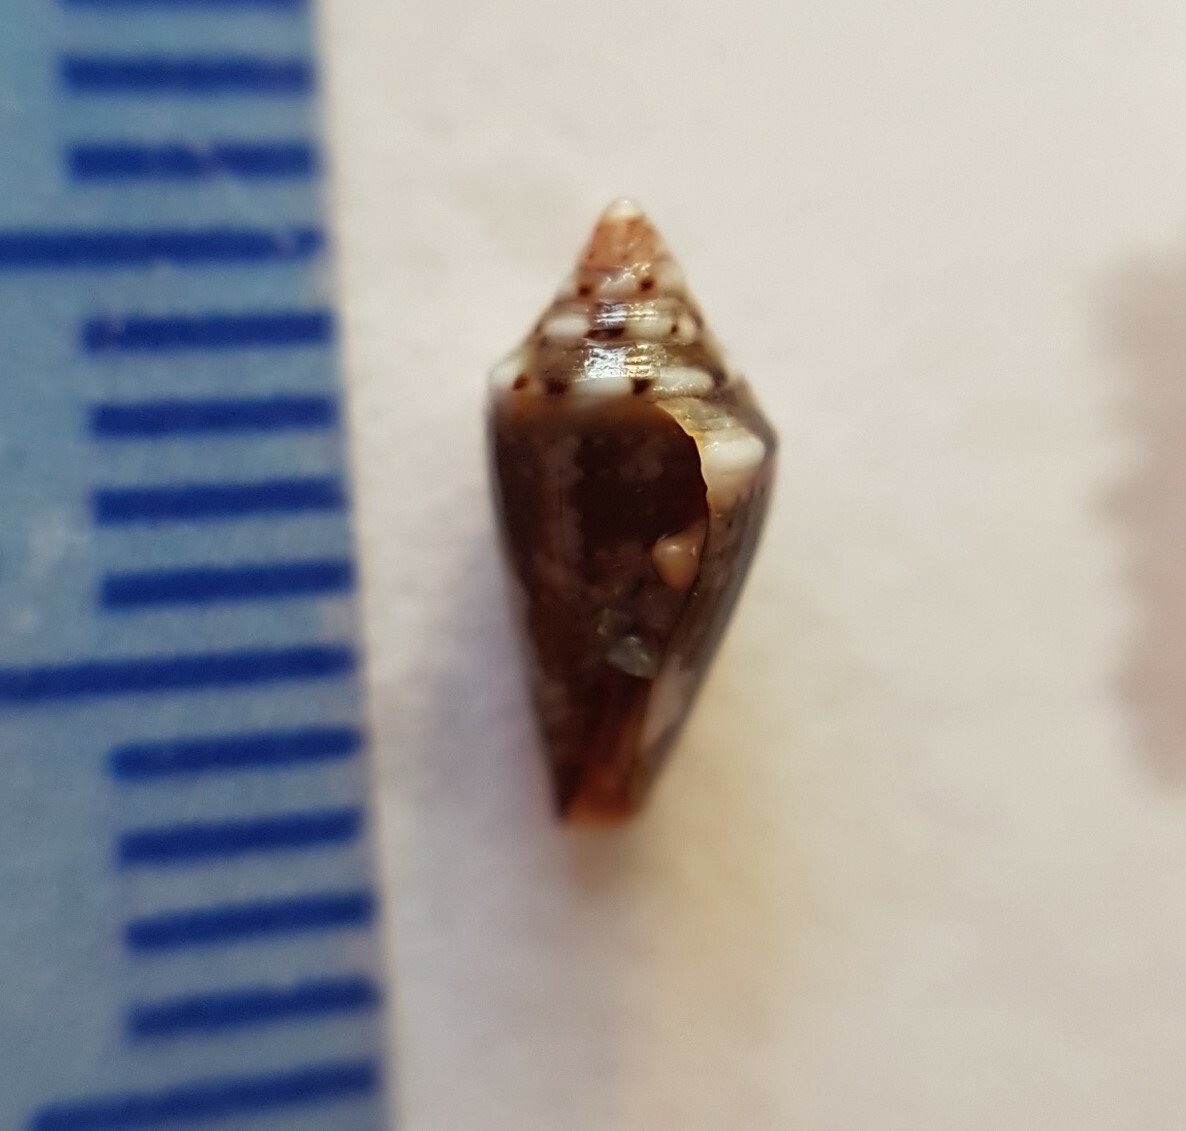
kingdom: Animalia
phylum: Mollusca
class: Gastropoda
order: Neogastropoda
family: Conidae
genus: Conus
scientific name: Conus ventricosus
